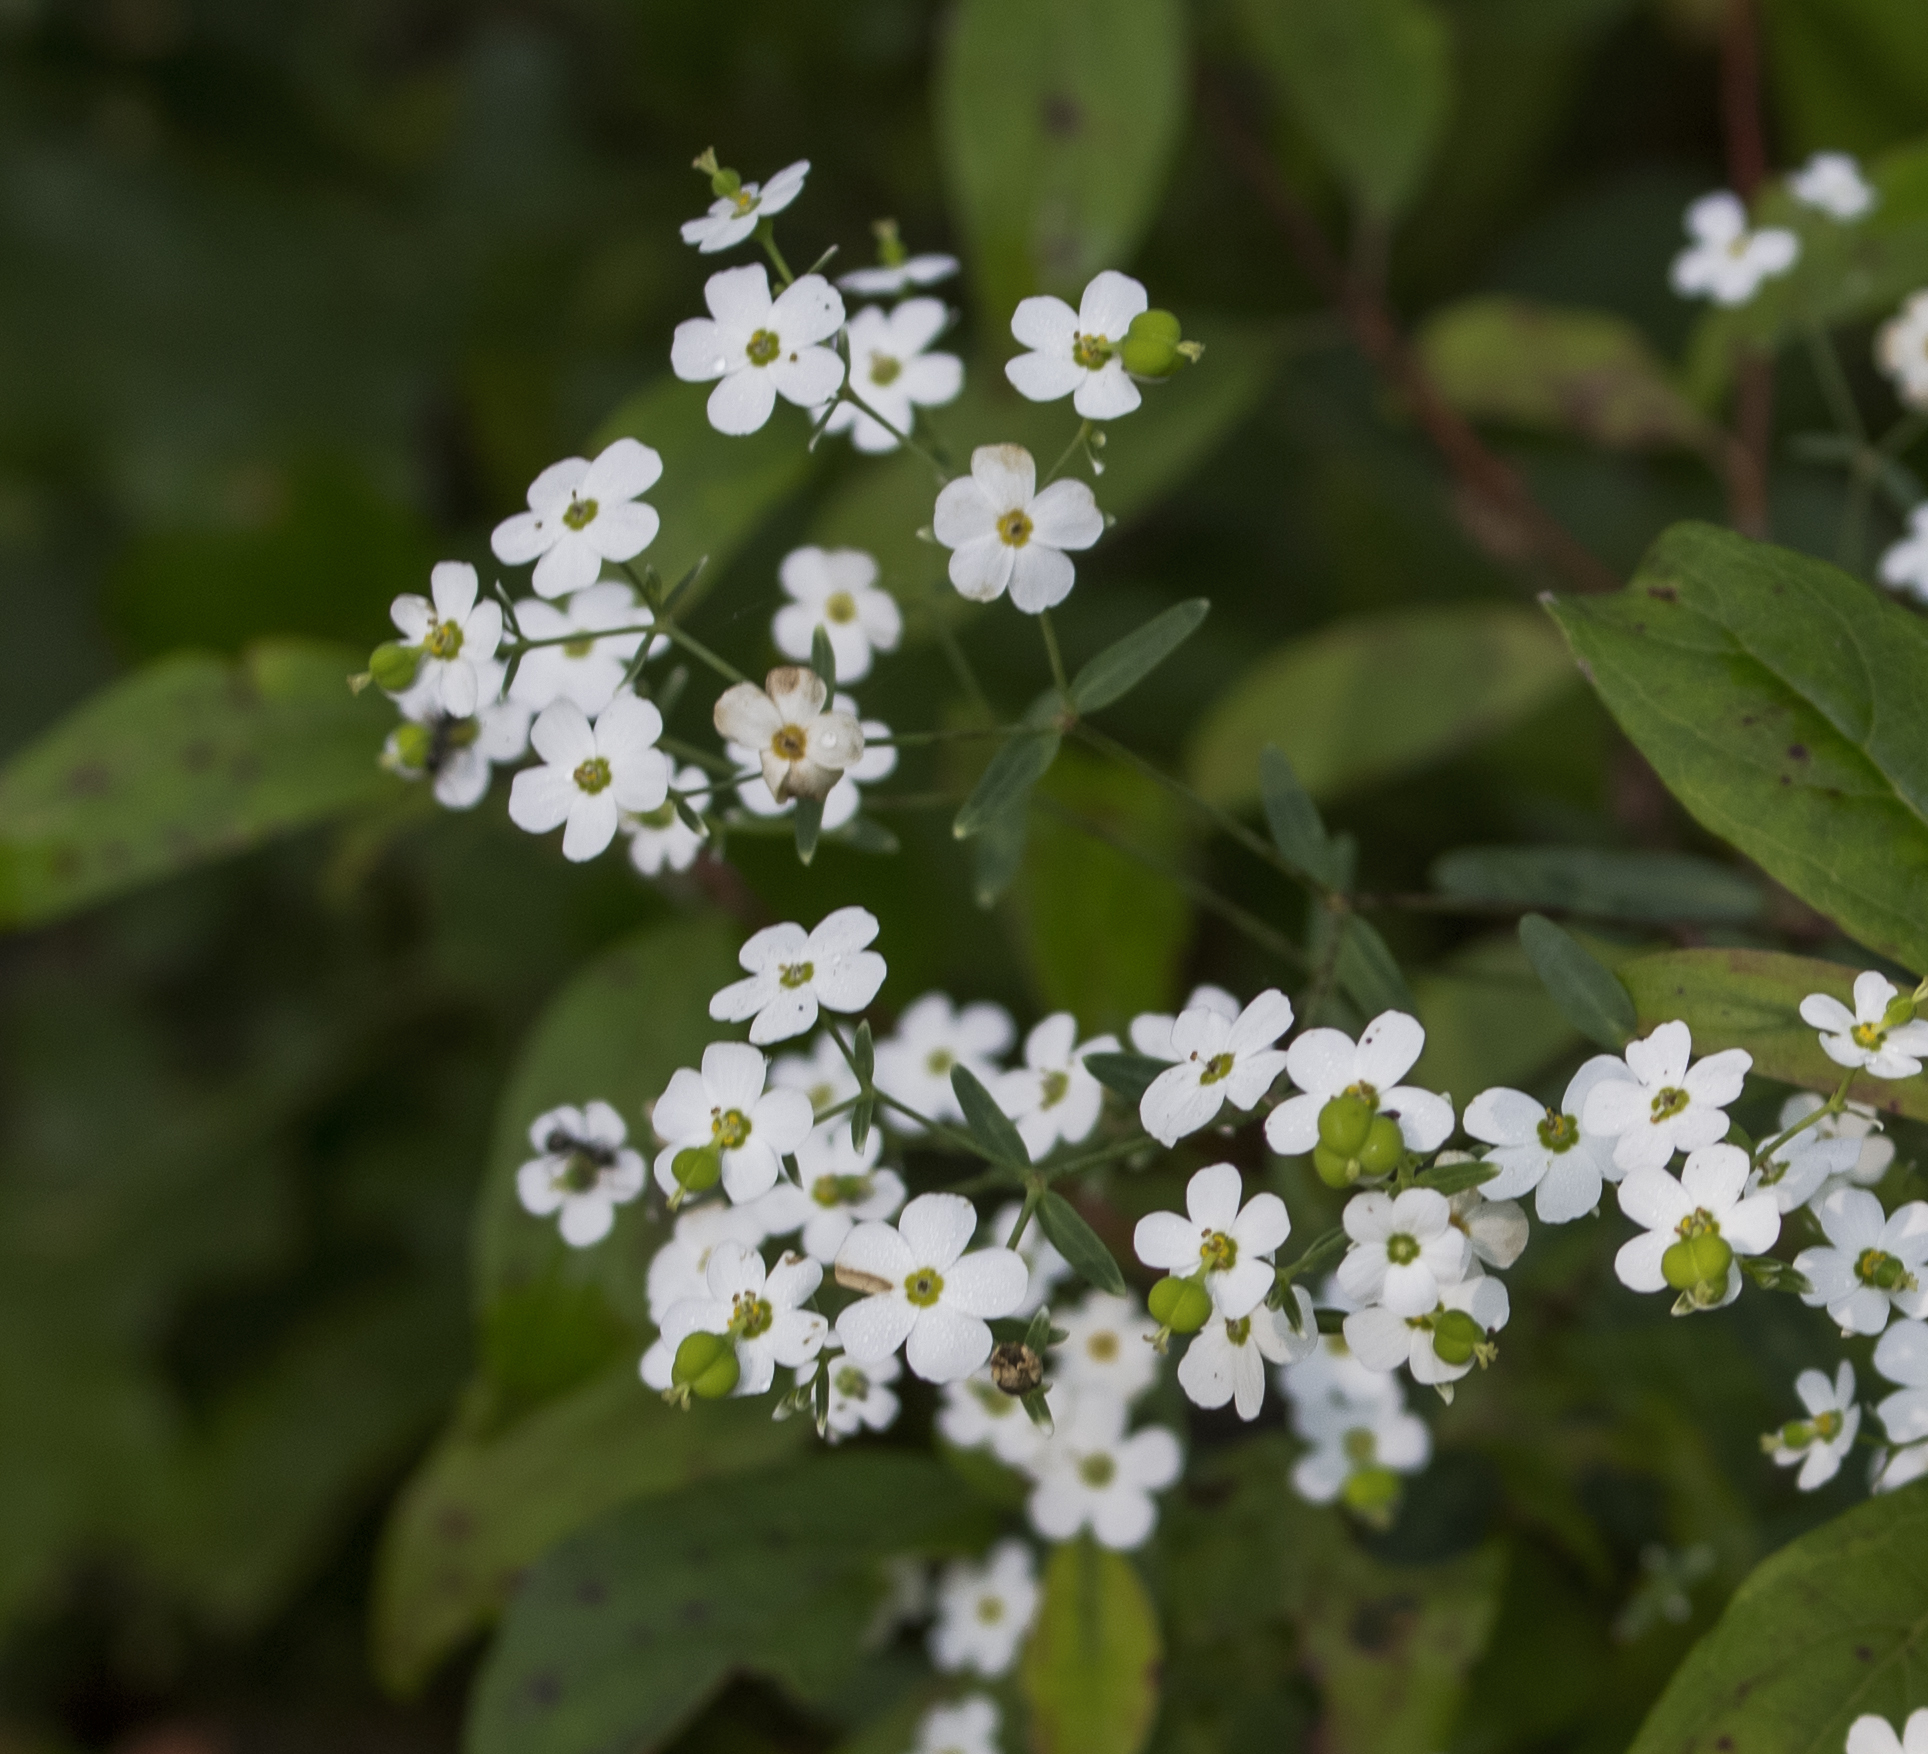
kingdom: Plantae
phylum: Tracheophyta
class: Magnoliopsida
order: Malpighiales
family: Euphorbiaceae
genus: Euphorbia
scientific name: Euphorbia corollata
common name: Flowering spurge
